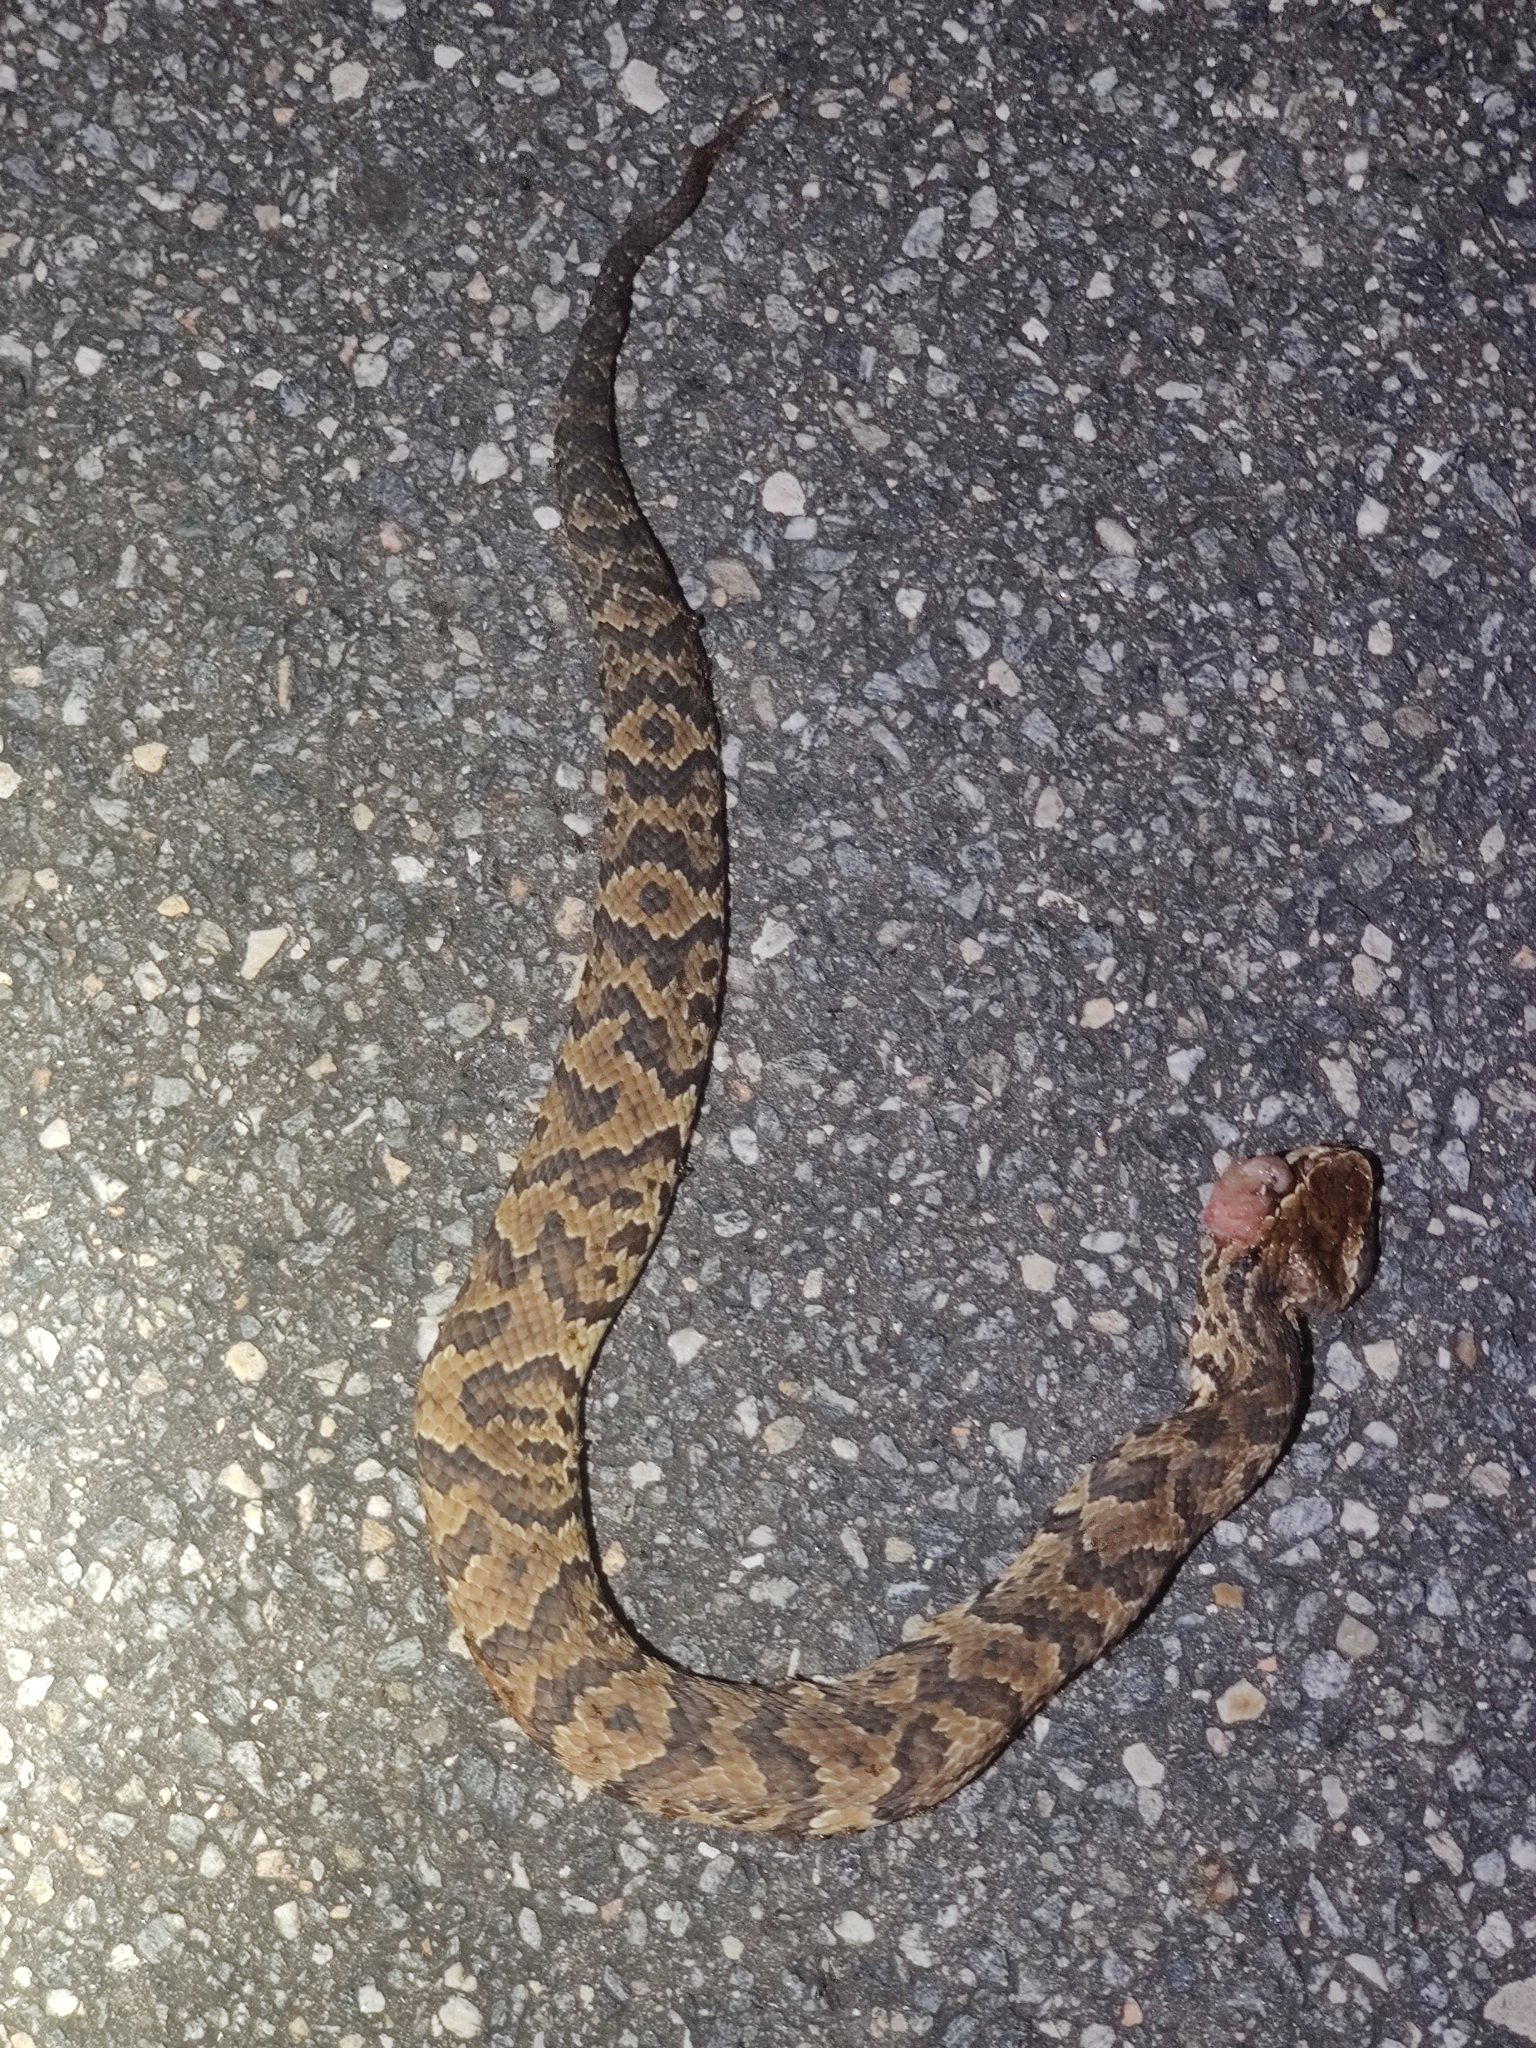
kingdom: Animalia
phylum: Chordata
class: Squamata
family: Viperidae
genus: Agkistrodon
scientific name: Agkistrodon conanti
